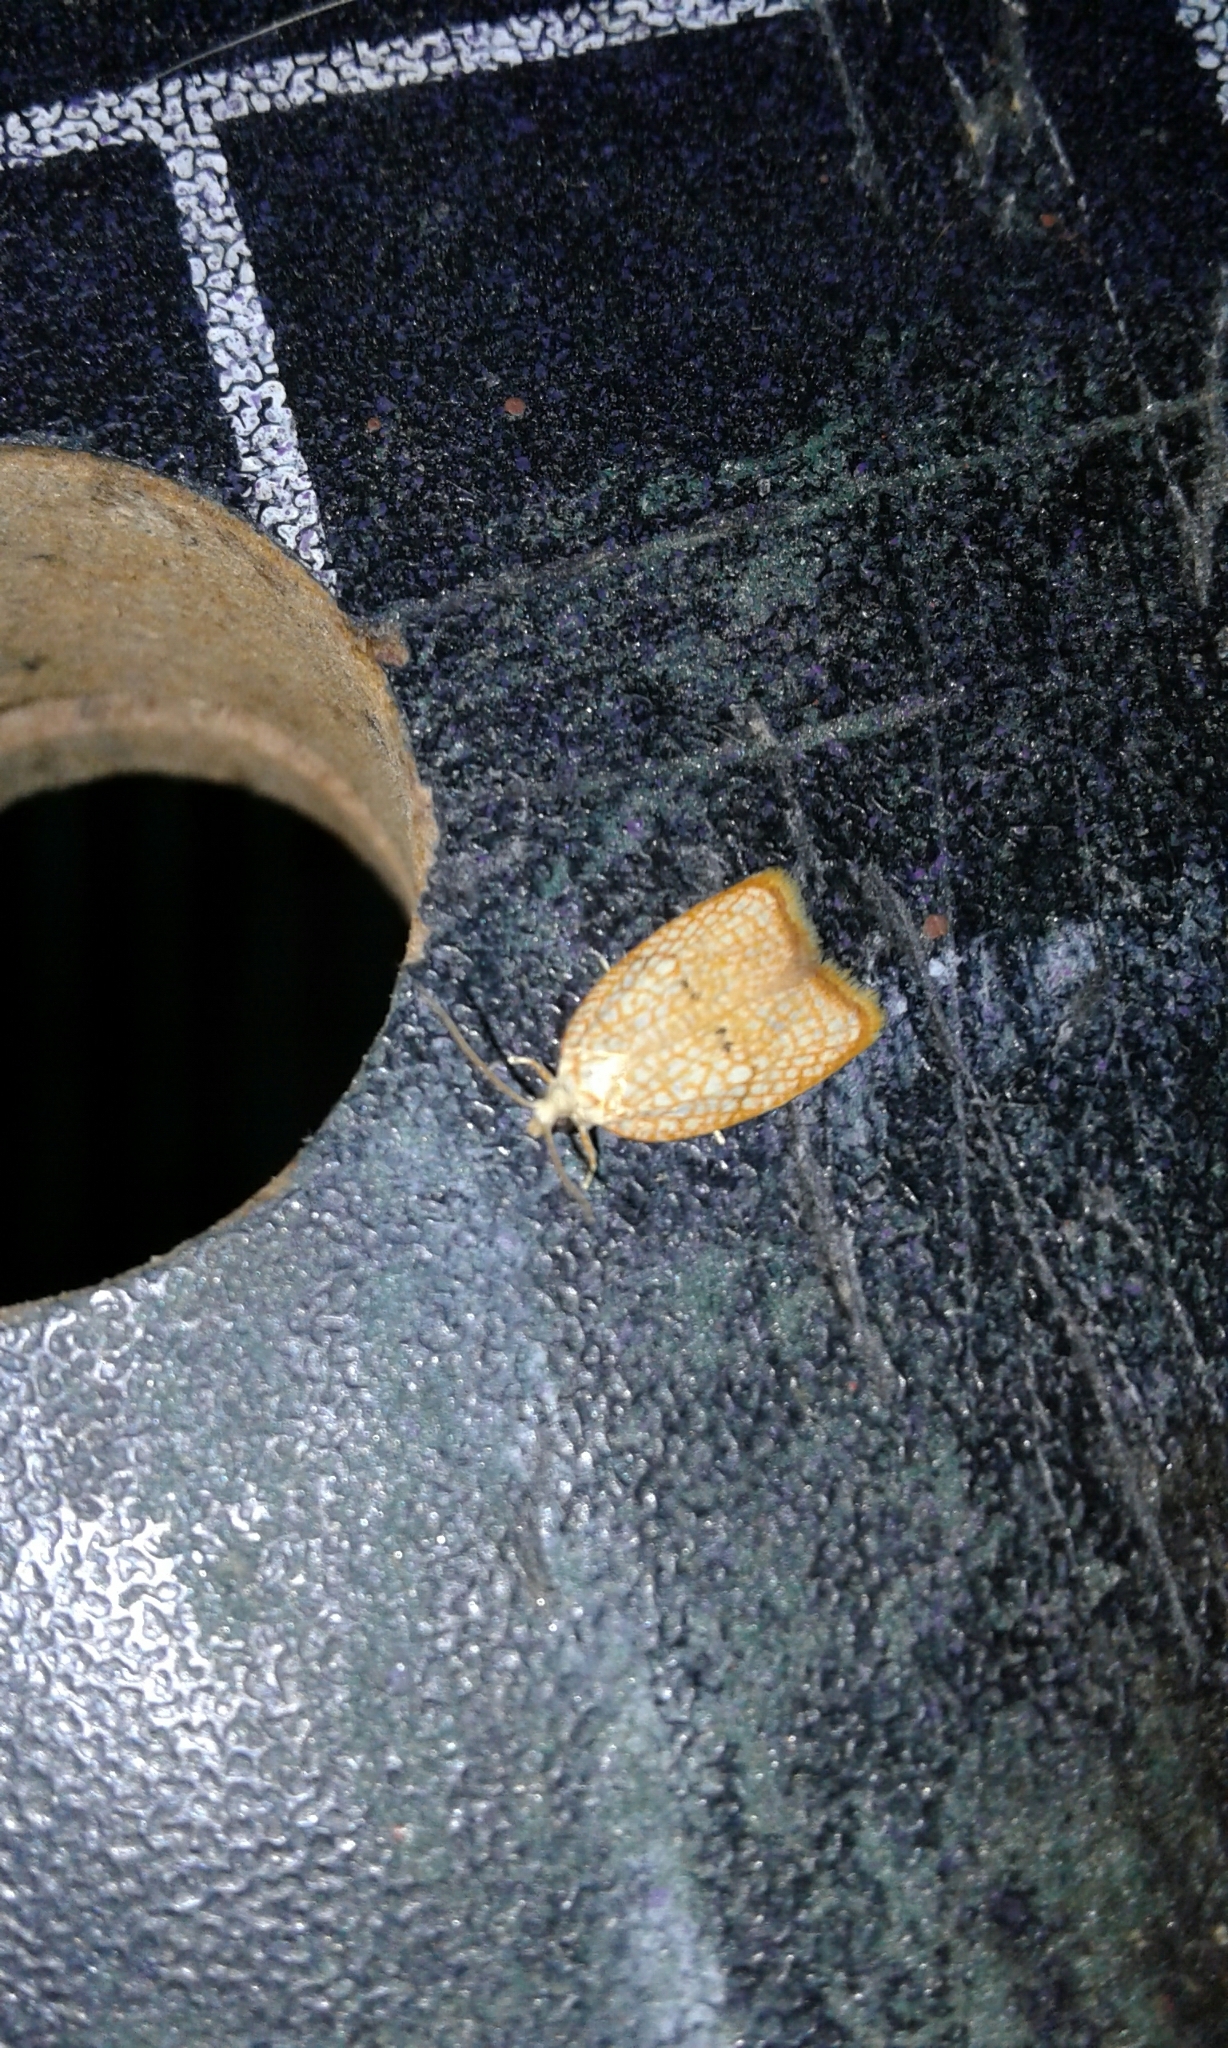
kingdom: Animalia
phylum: Arthropoda
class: Insecta
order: Lepidoptera
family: Tortricidae
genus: Acleris
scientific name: Acleris forsskaleana
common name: Maple button
